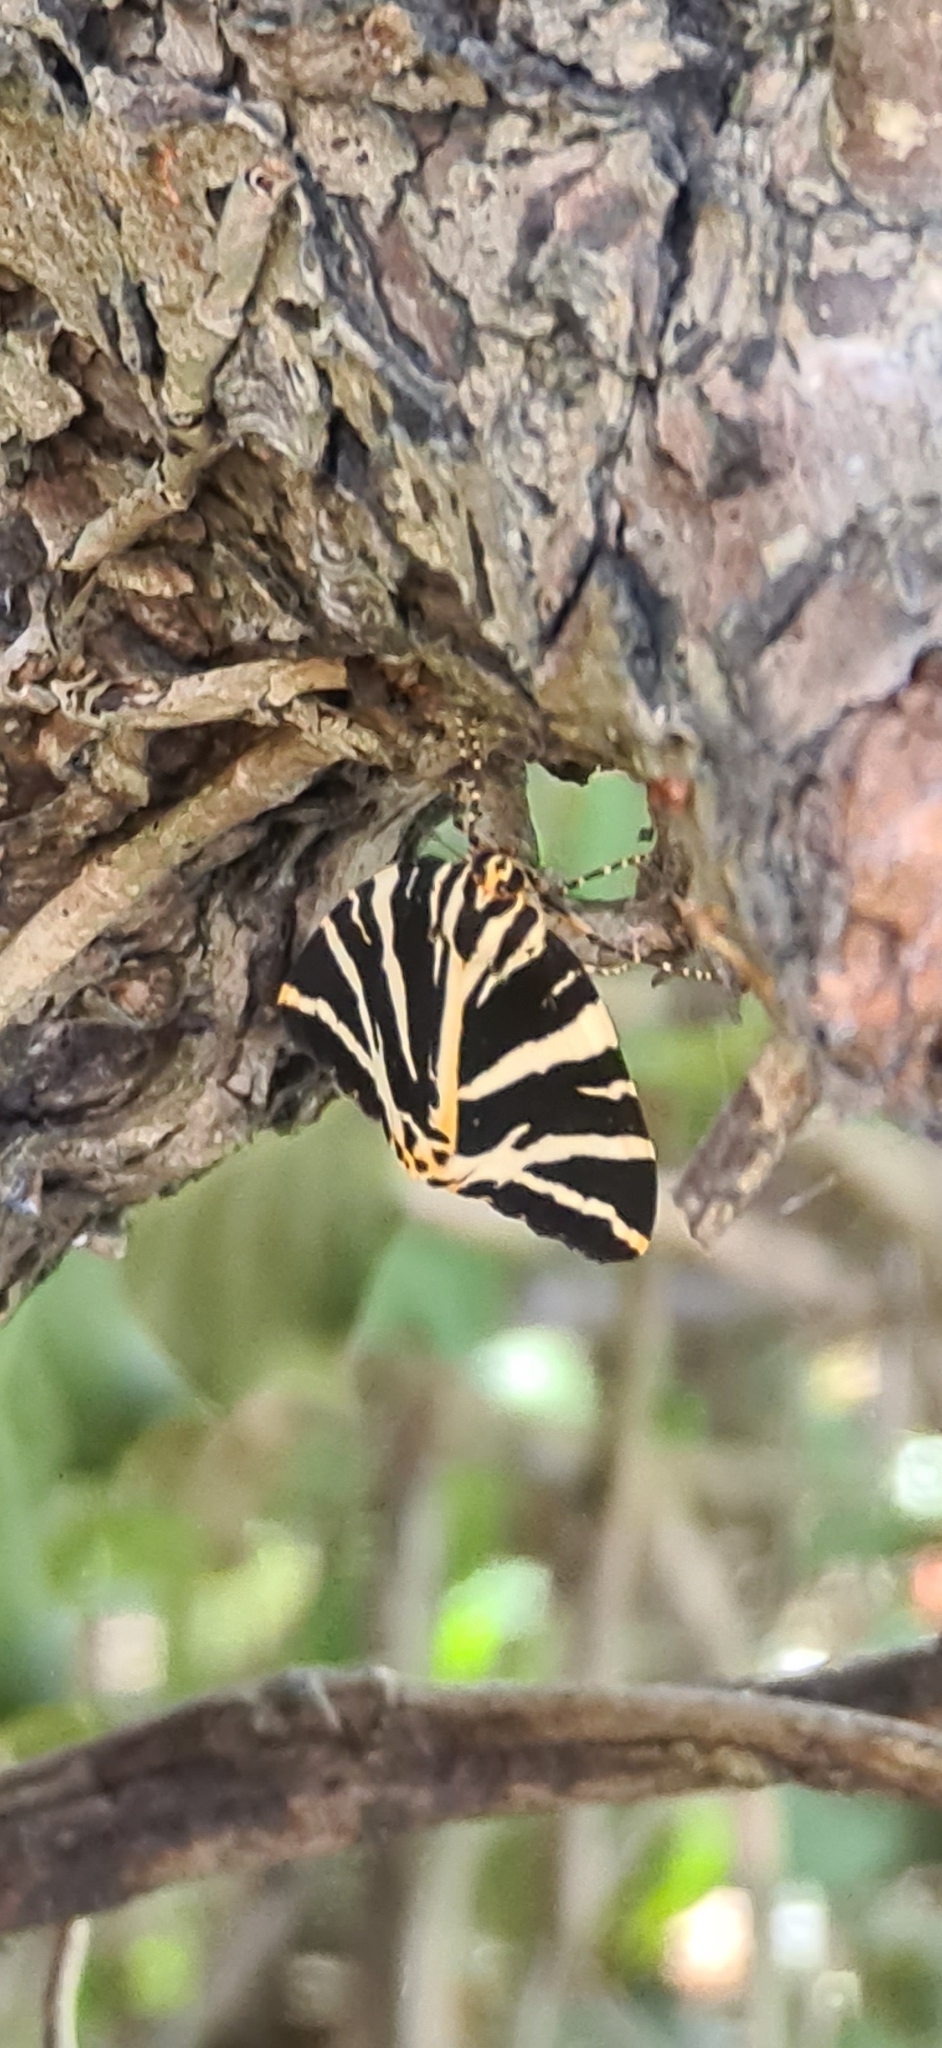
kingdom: Animalia
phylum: Arthropoda
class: Insecta
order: Lepidoptera
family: Erebidae
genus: Euplagia
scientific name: Euplagia quadripunctaria
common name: Jersey tiger
